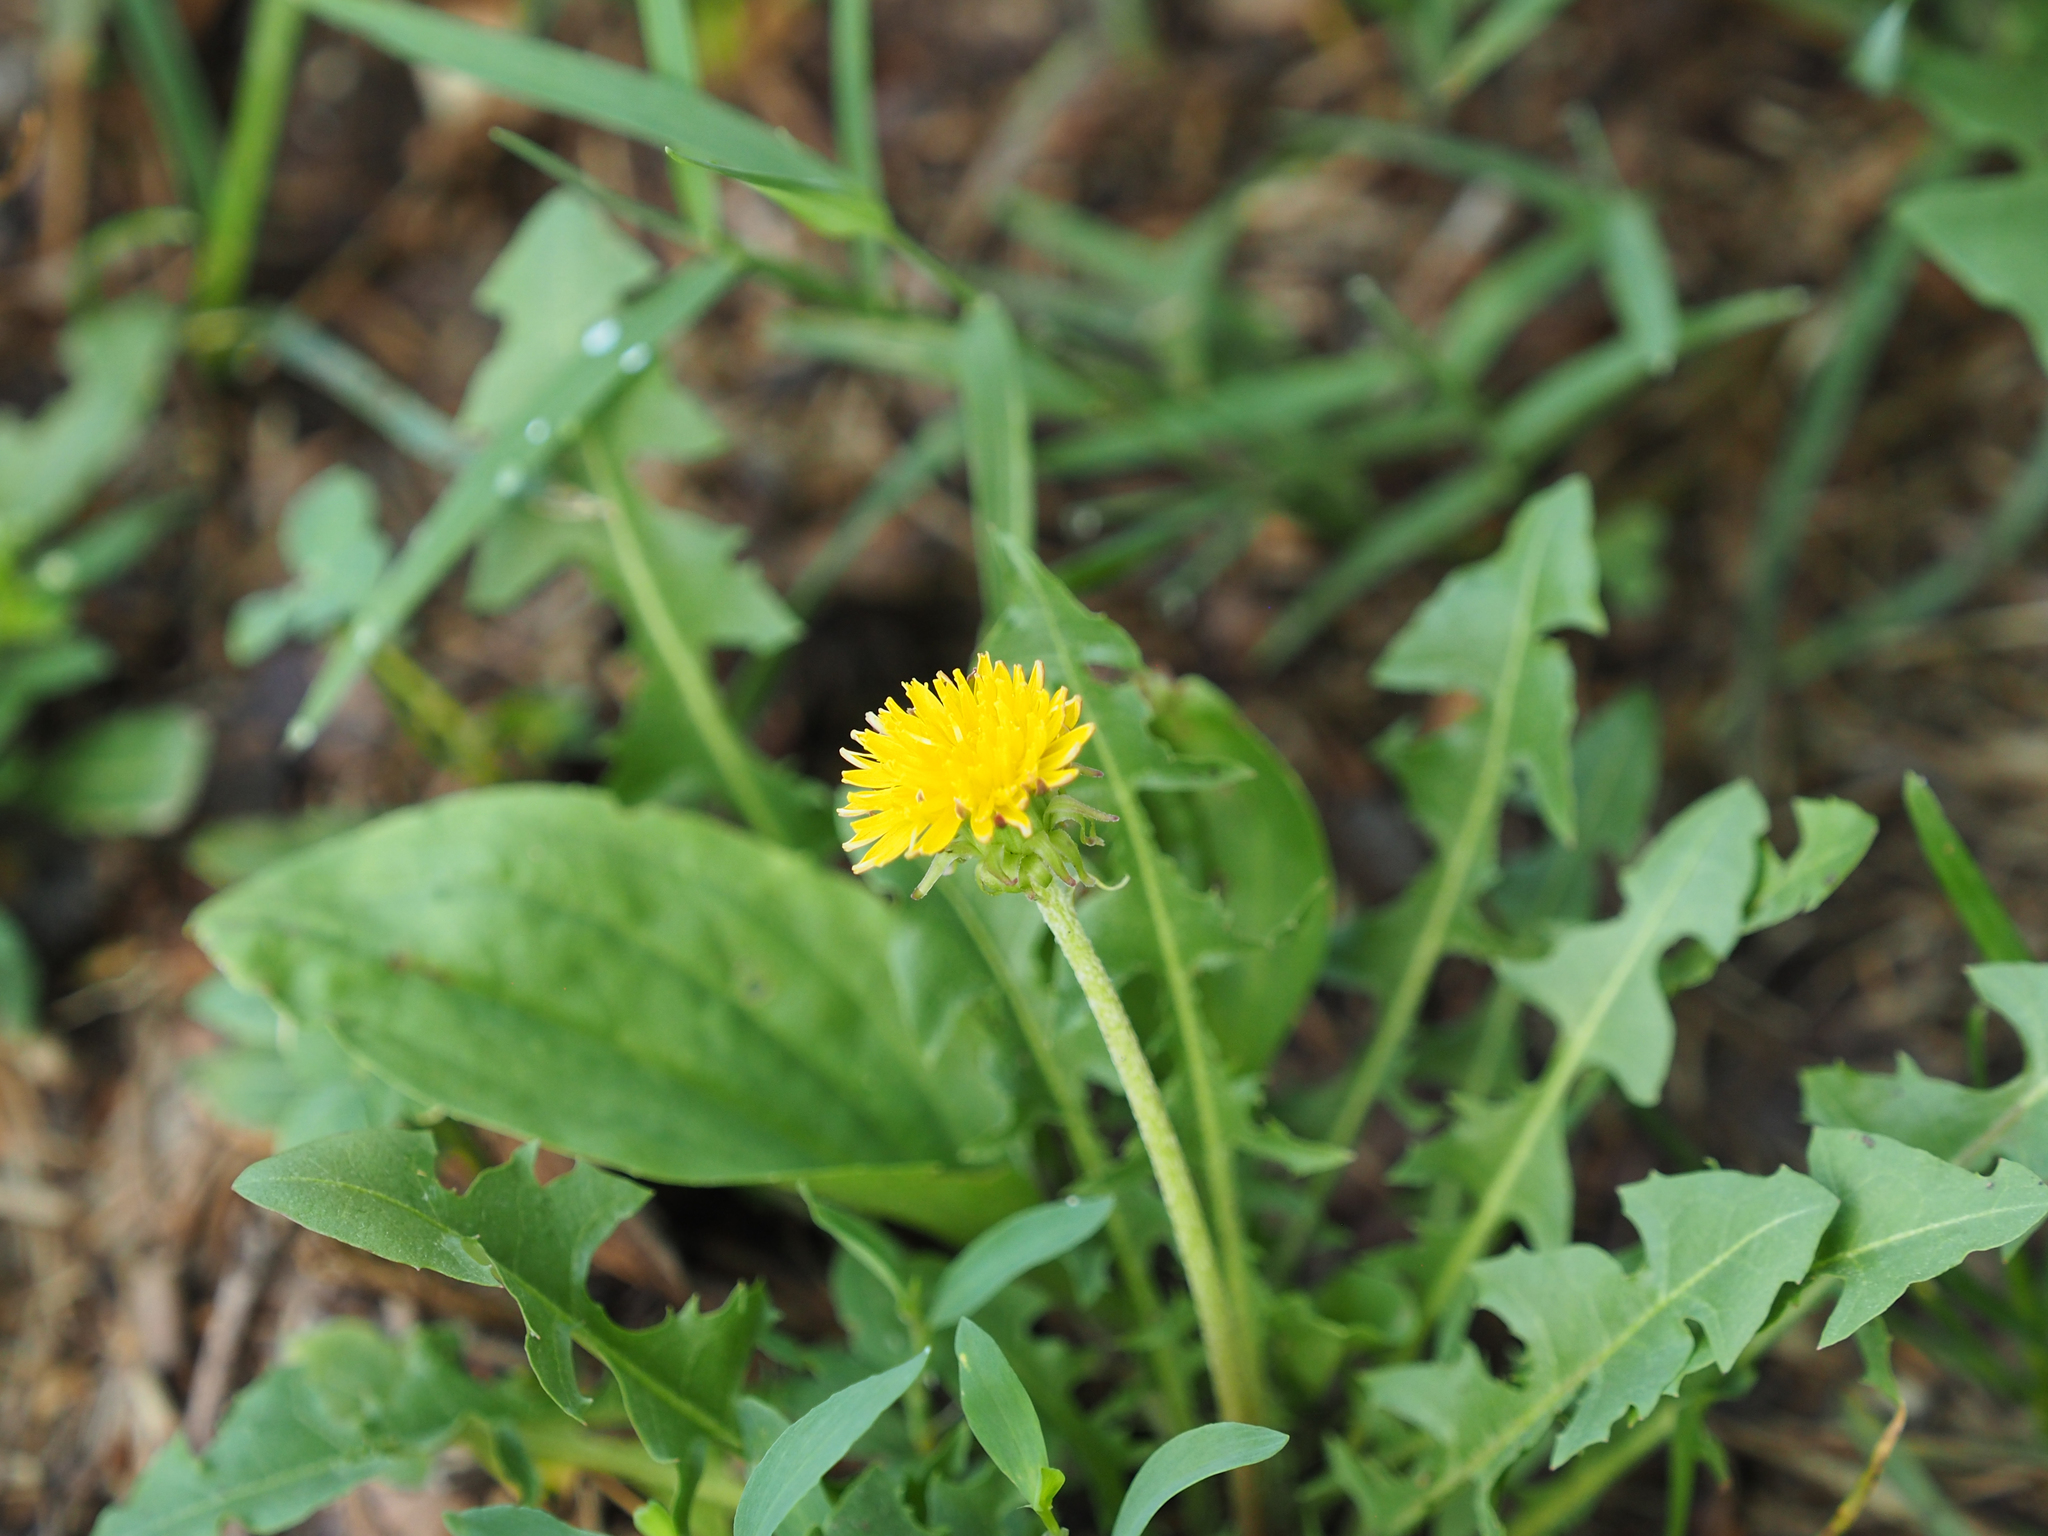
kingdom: Plantae
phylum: Tracheophyta
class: Magnoliopsida
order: Asterales
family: Asteraceae
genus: Taraxacum
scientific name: Taraxacum officinale
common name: Common dandelion
